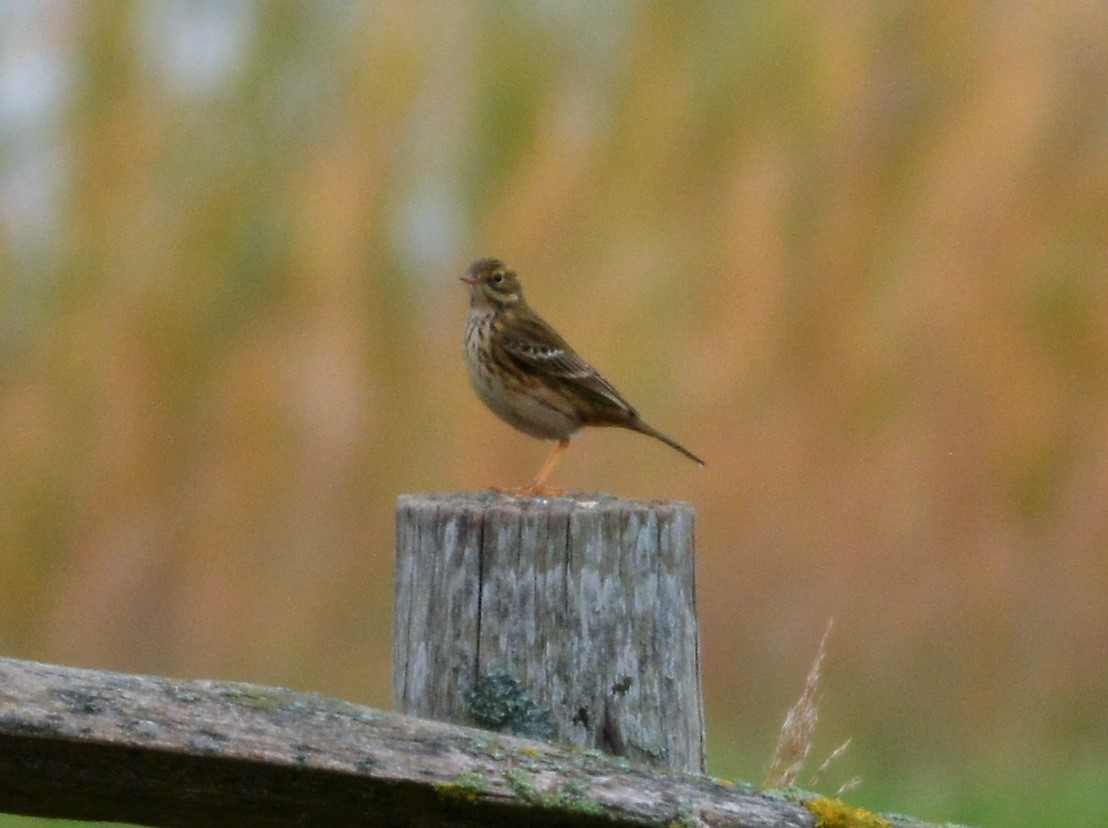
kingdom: Animalia
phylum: Chordata
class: Aves
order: Passeriformes
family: Motacillidae
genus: Anthus
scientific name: Anthus pratensis
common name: Meadow pipit
